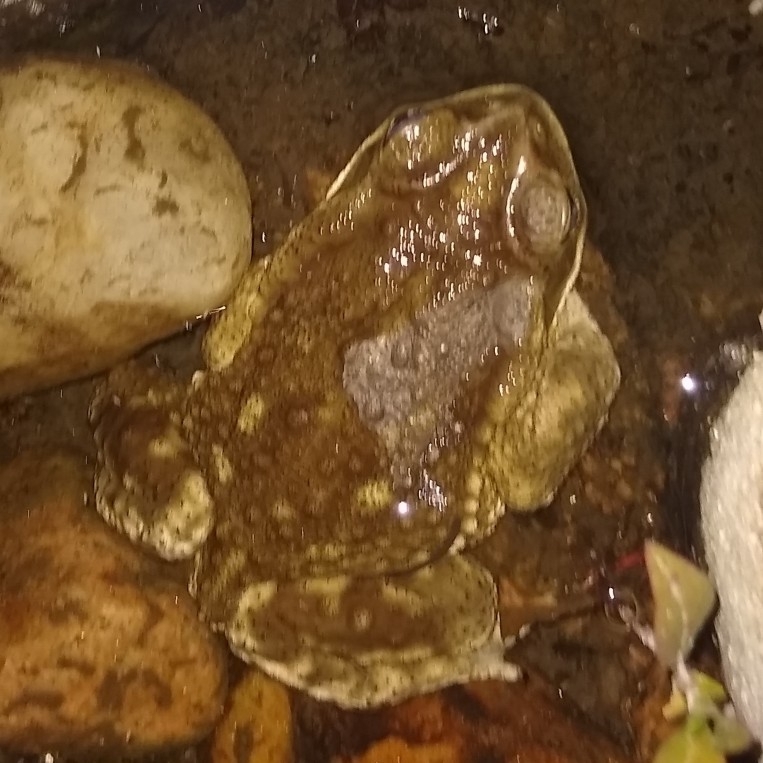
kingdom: Animalia
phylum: Chordata
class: Amphibia
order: Anura
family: Bufonidae
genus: Rhinella
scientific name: Rhinella arenarum
